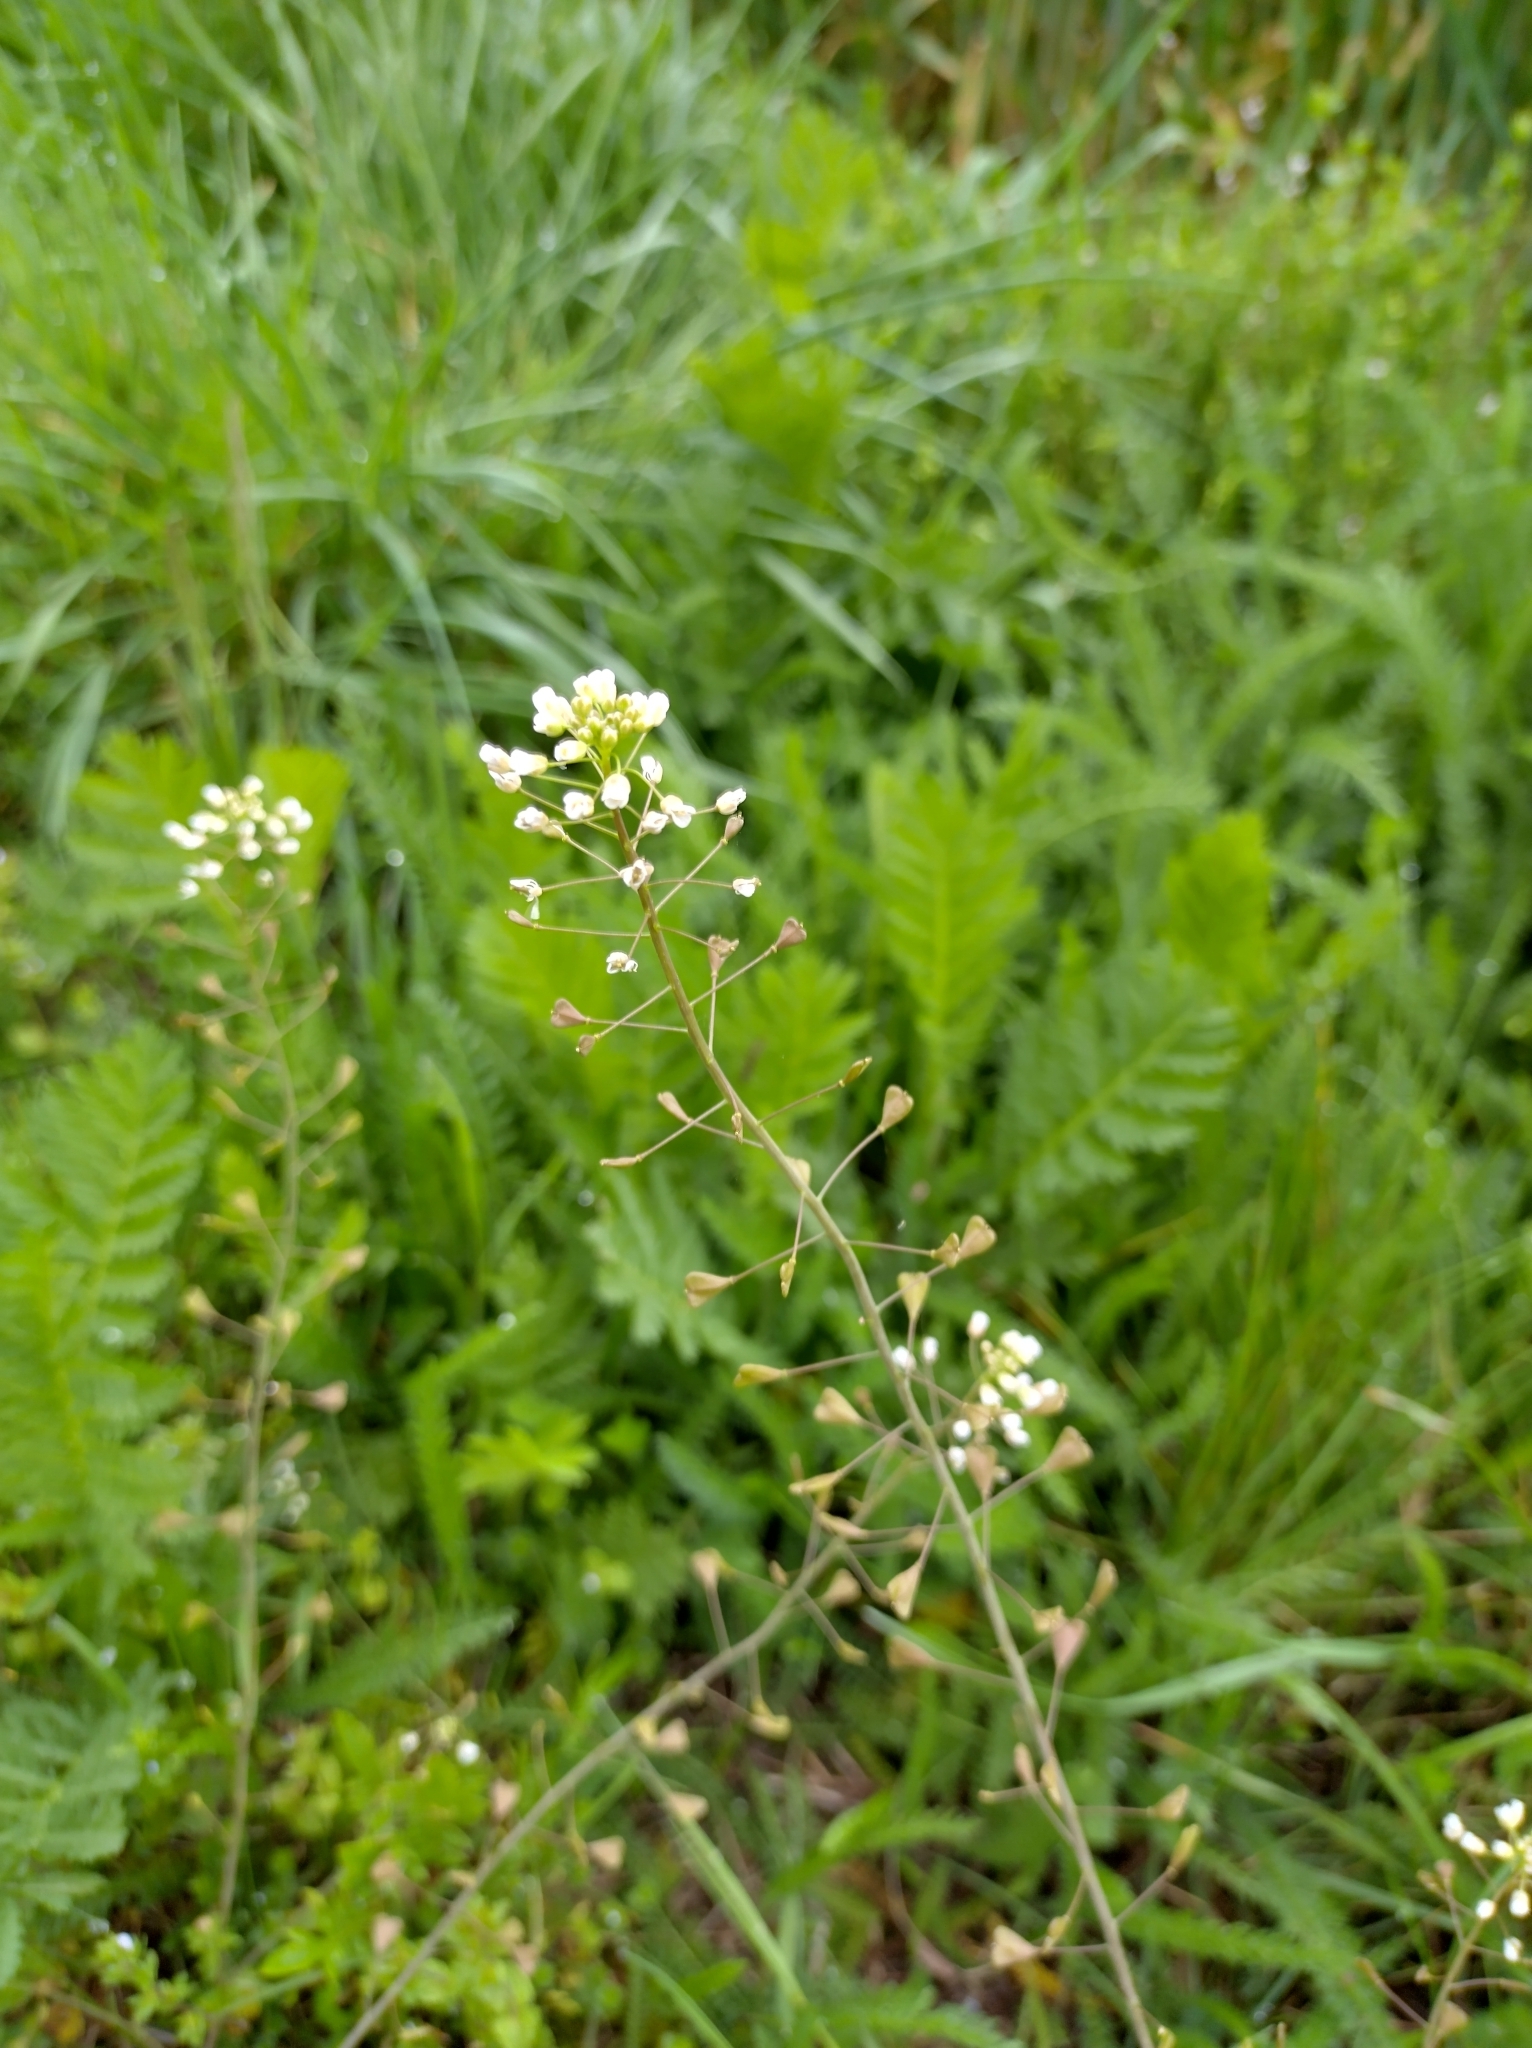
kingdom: Plantae
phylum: Tracheophyta
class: Magnoliopsida
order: Brassicales
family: Brassicaceae
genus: Capsella
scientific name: Capsella bursa-pastoris
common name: Shepherd's purse
